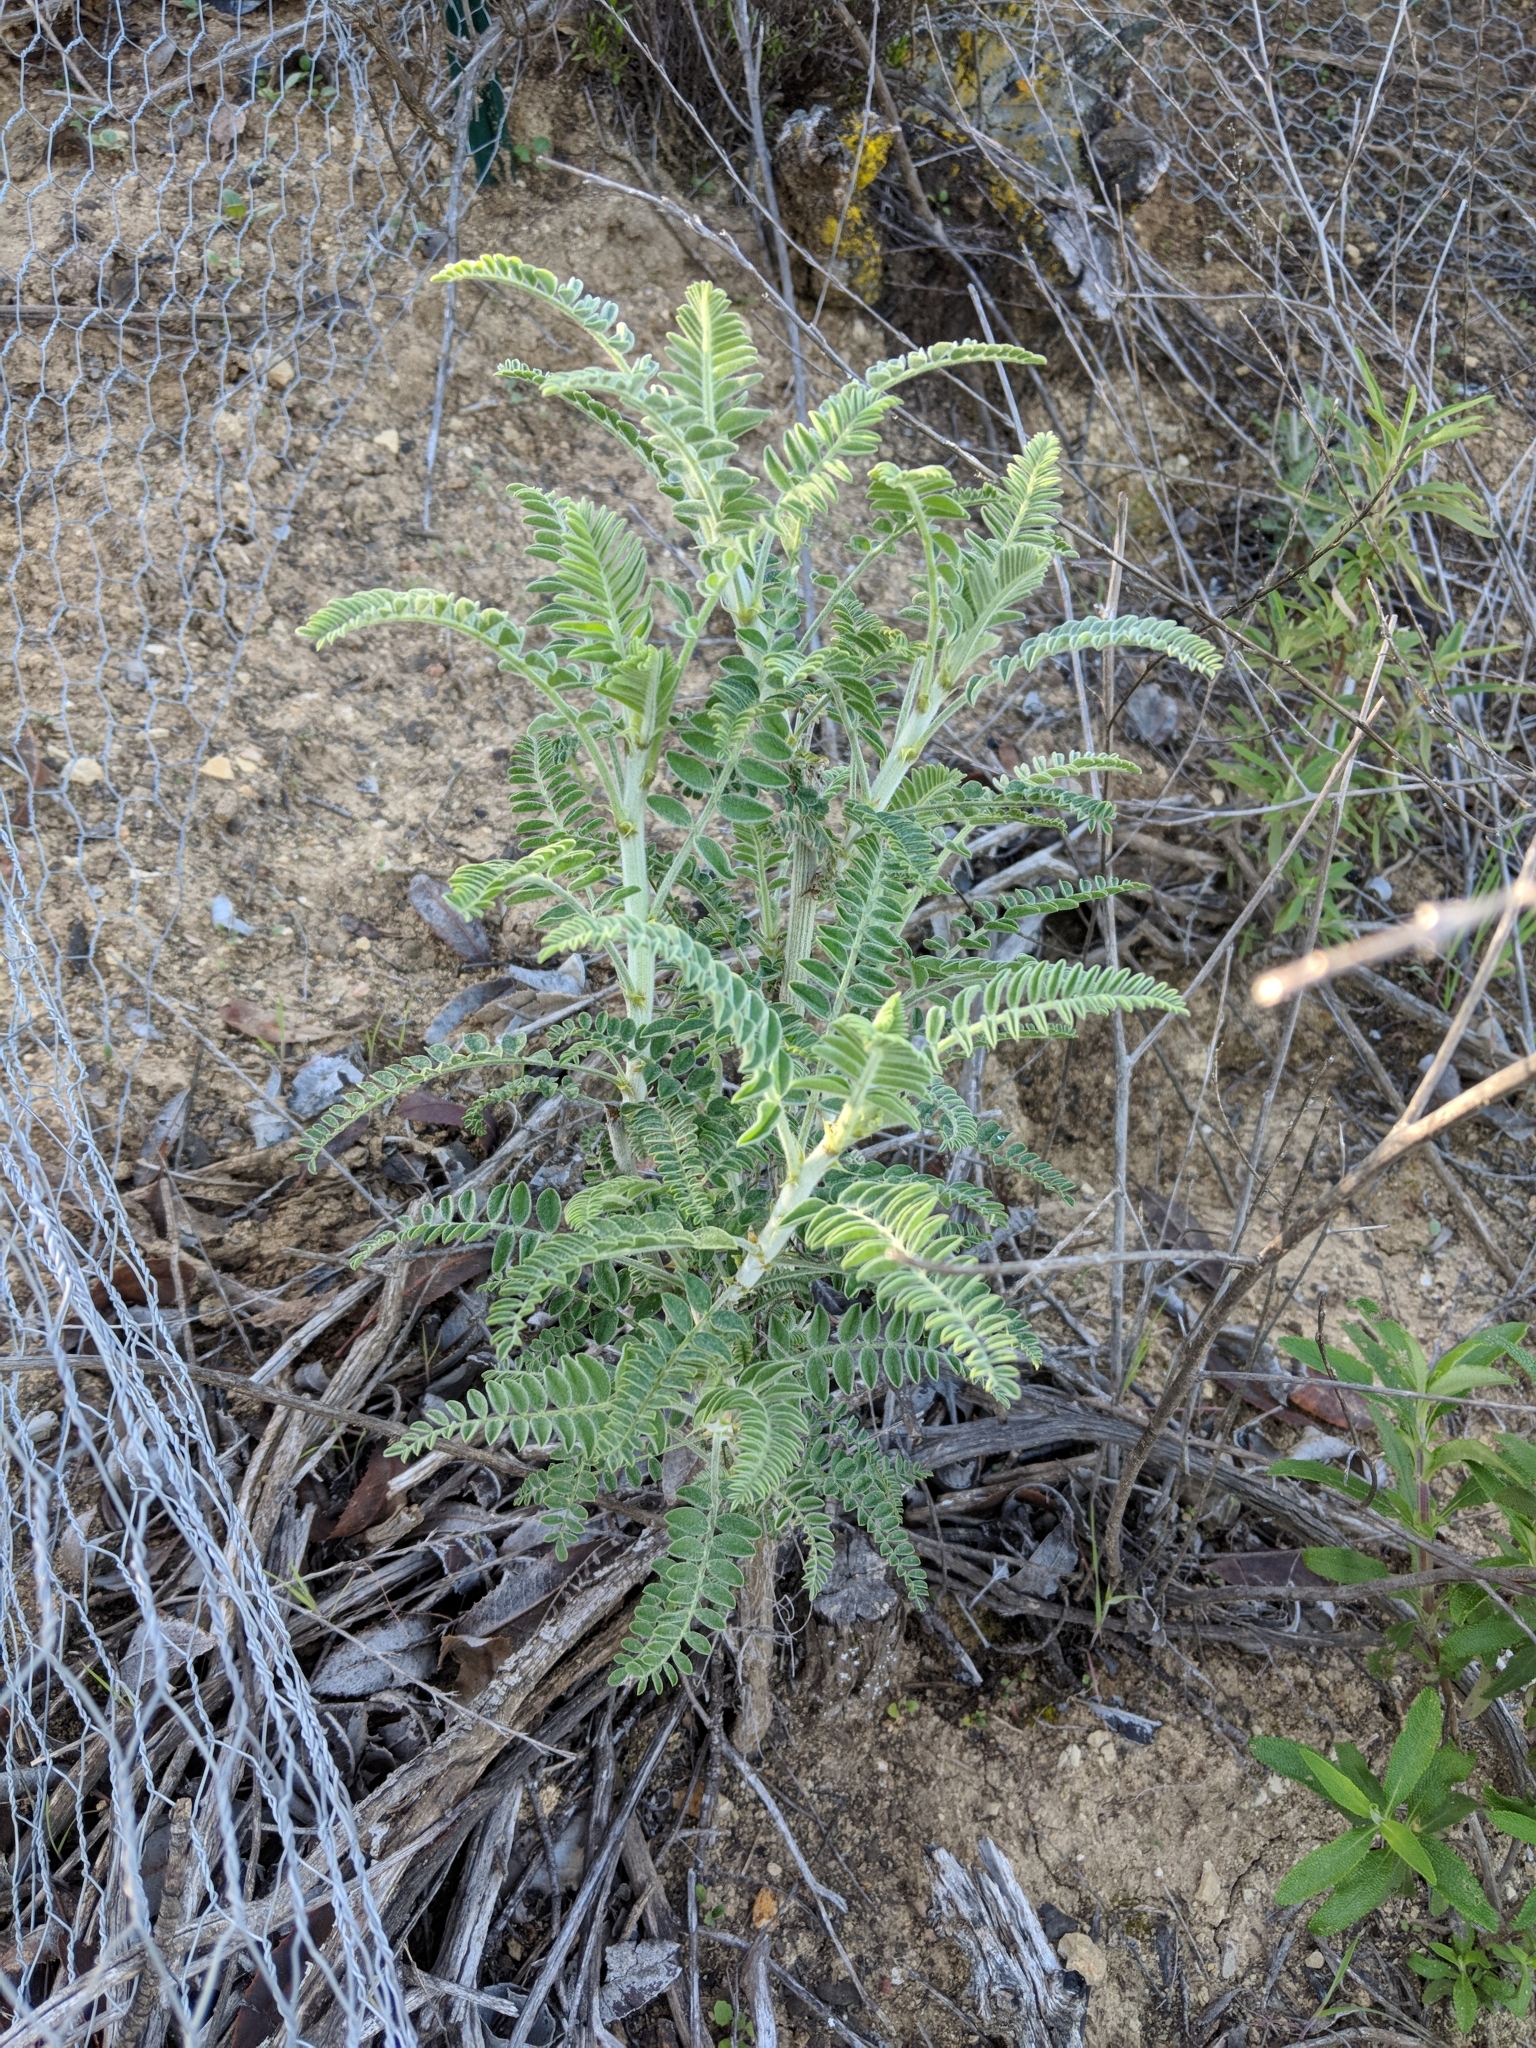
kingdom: Plantae
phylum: Tracheophyta
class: Magnoliopsida
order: Fabales
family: Fabaceae
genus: Astragalus
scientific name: Astragalus brauntonii
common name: Braunton's milk-vetch
